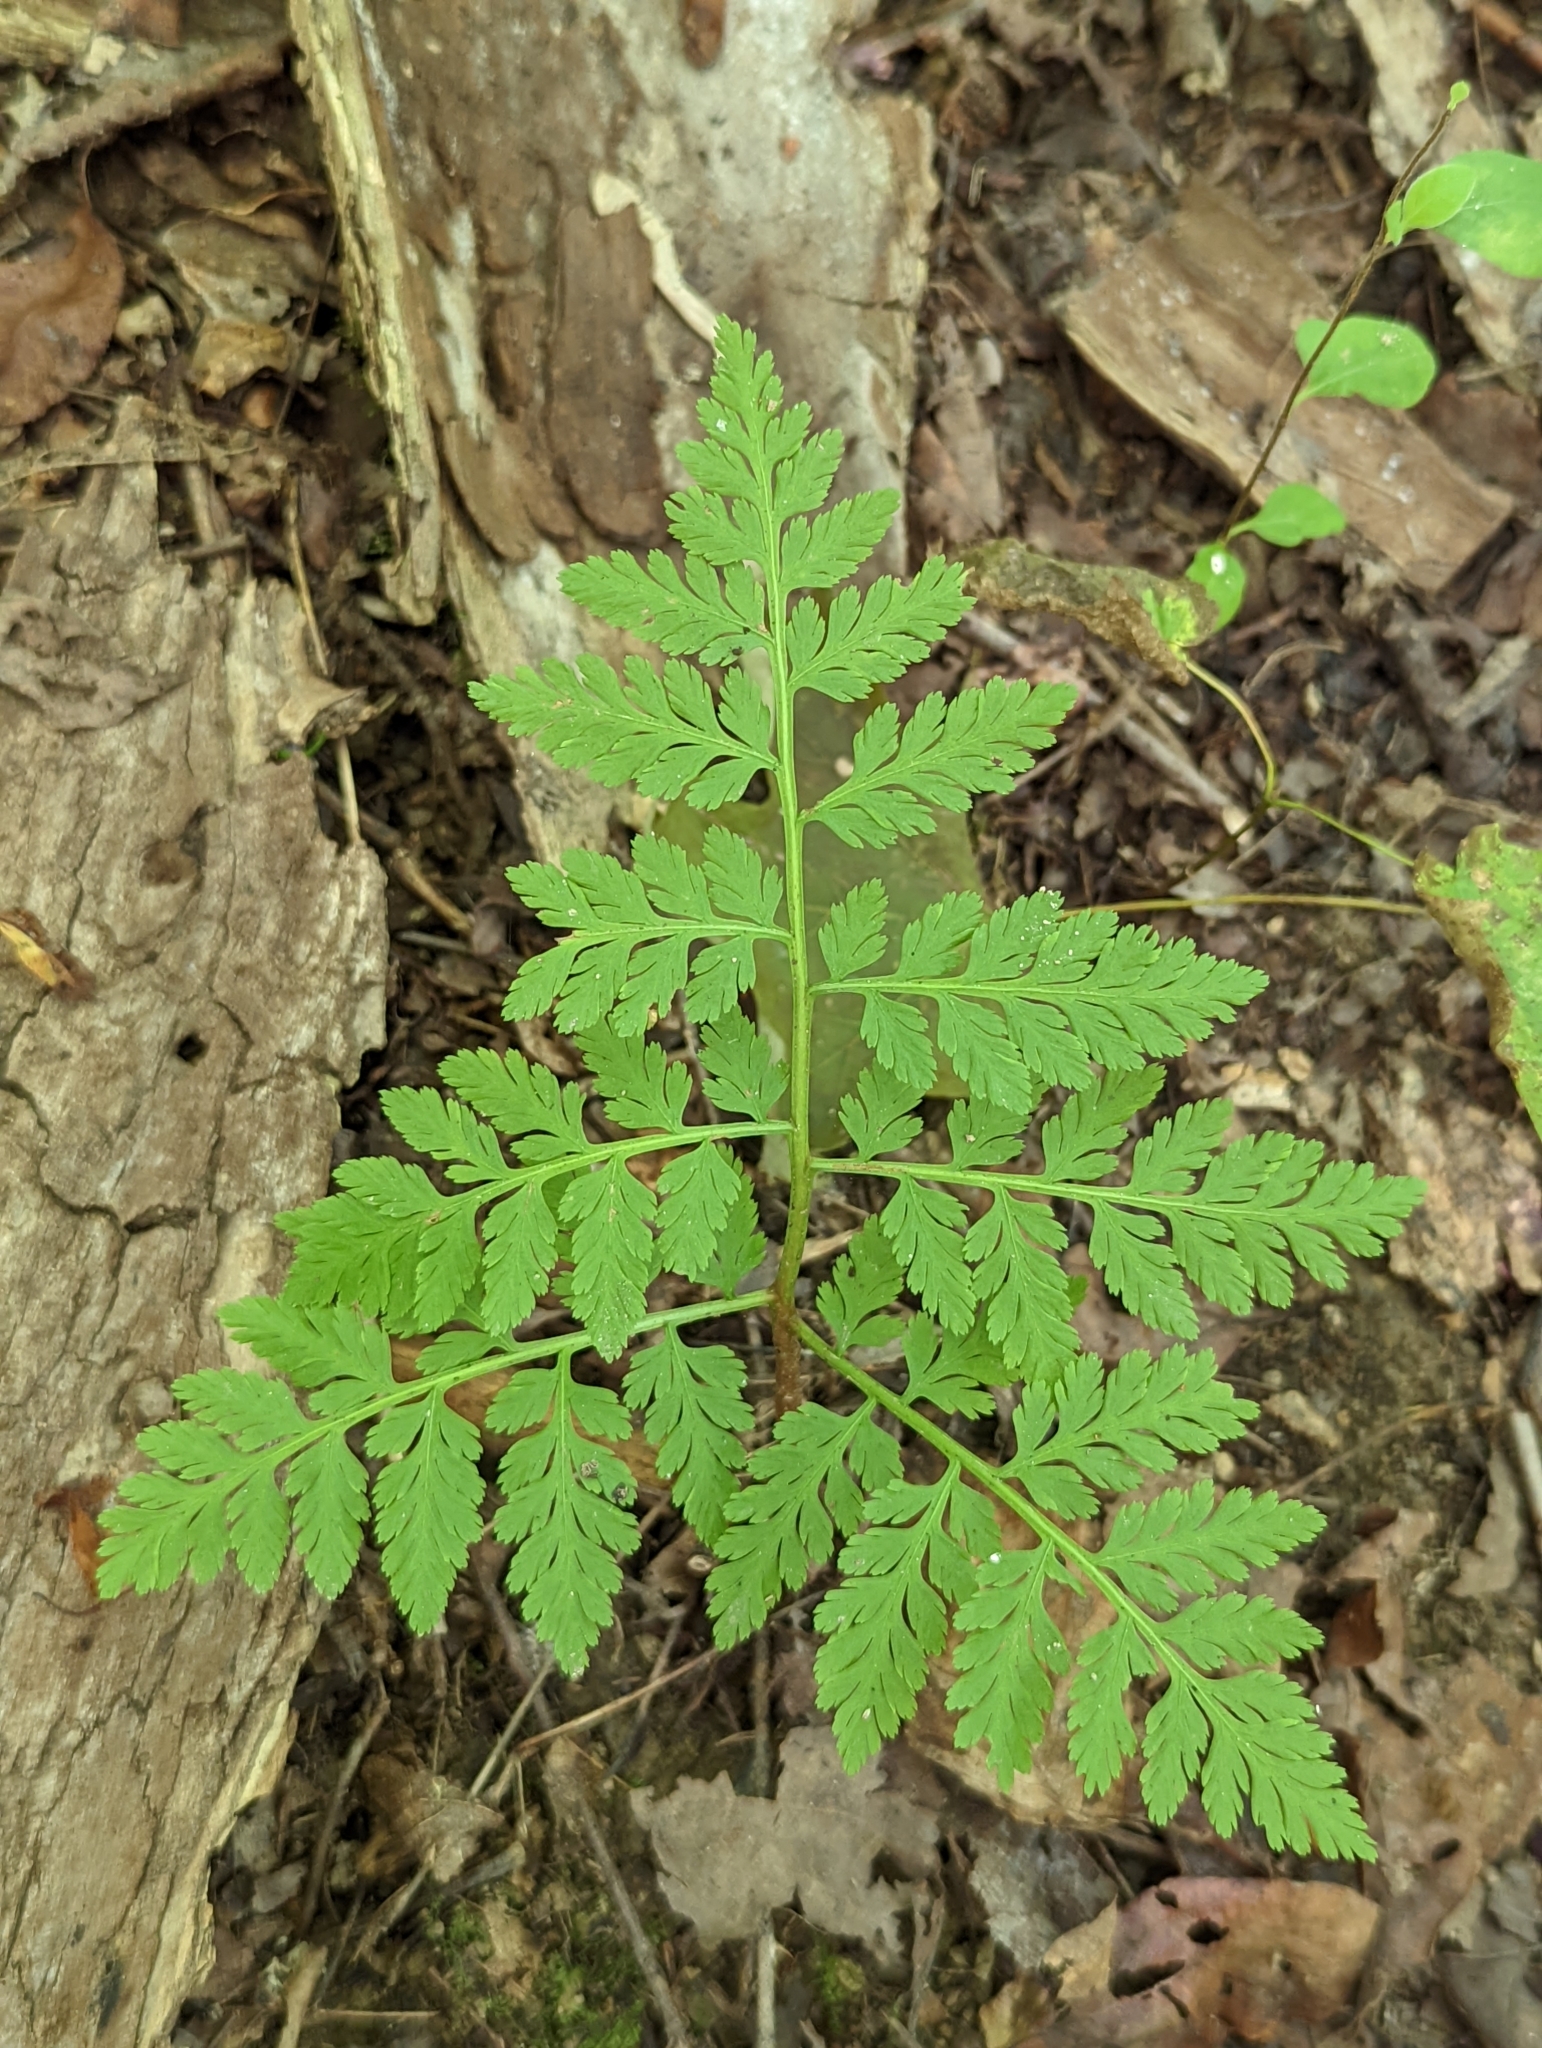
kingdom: Plantae
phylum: Tracheophyta
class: Polypodiopsida
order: Ophioglossales
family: Ophioglossaceae
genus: Botrypus
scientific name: Botrypus virginianus
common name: Common grapefern
